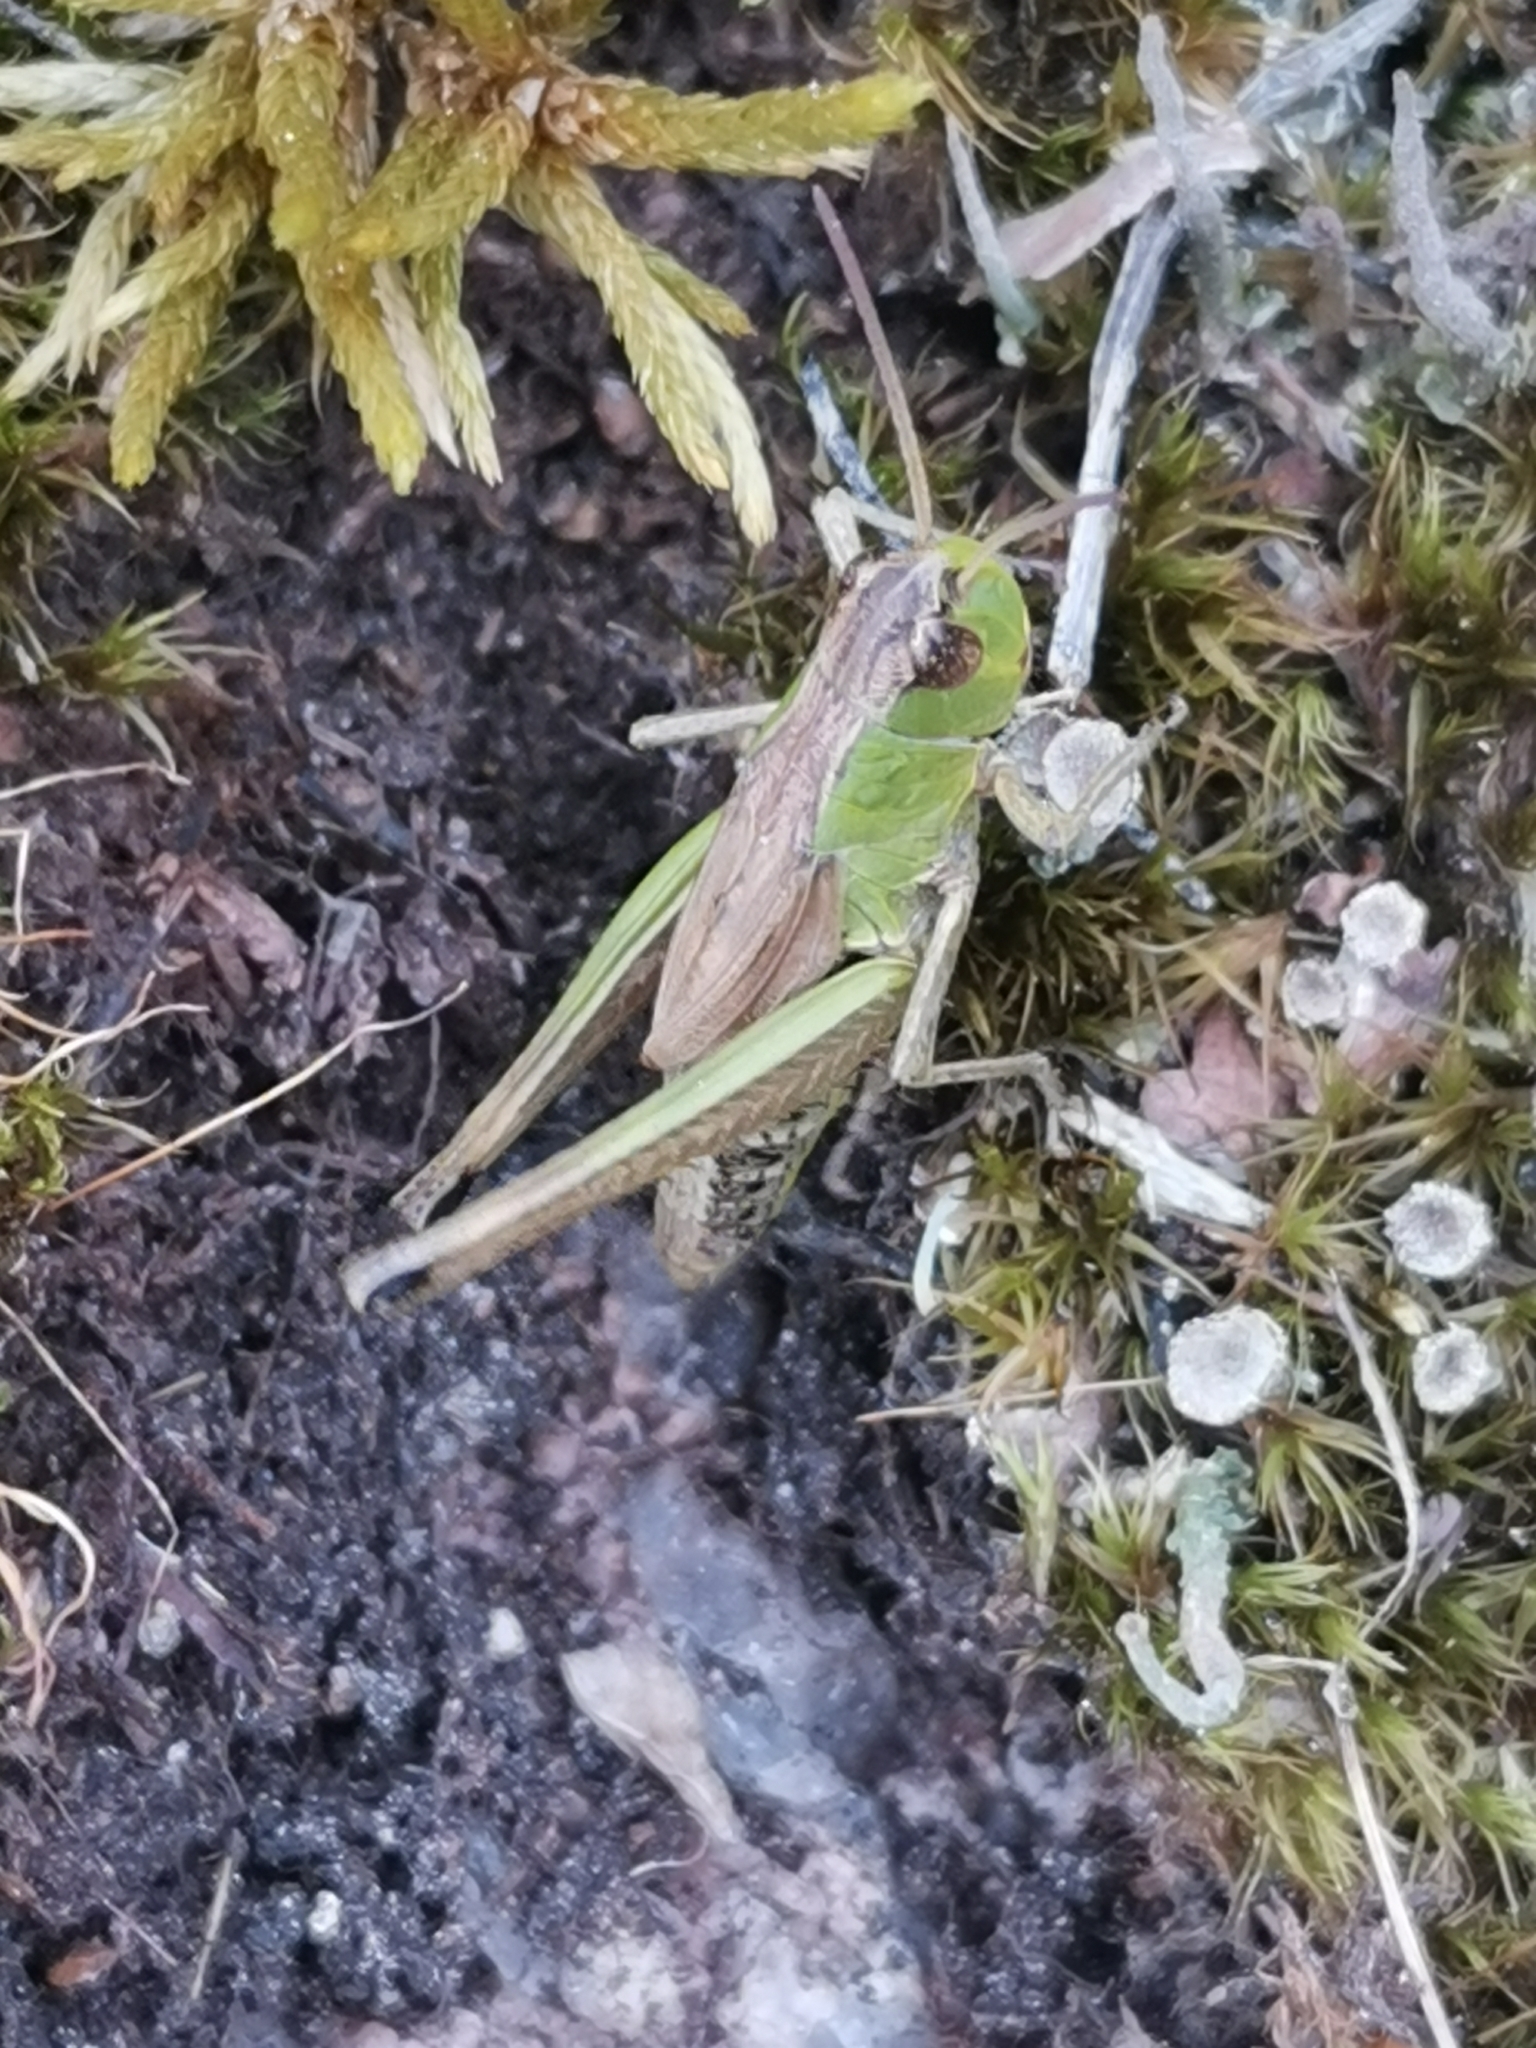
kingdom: Animalia
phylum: Arthropoda
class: Insecta
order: Orthoptera
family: Acrididae
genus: Pseudochorthippus
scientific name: Pseudochorthippus parallelus
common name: Meadow grasshopper
